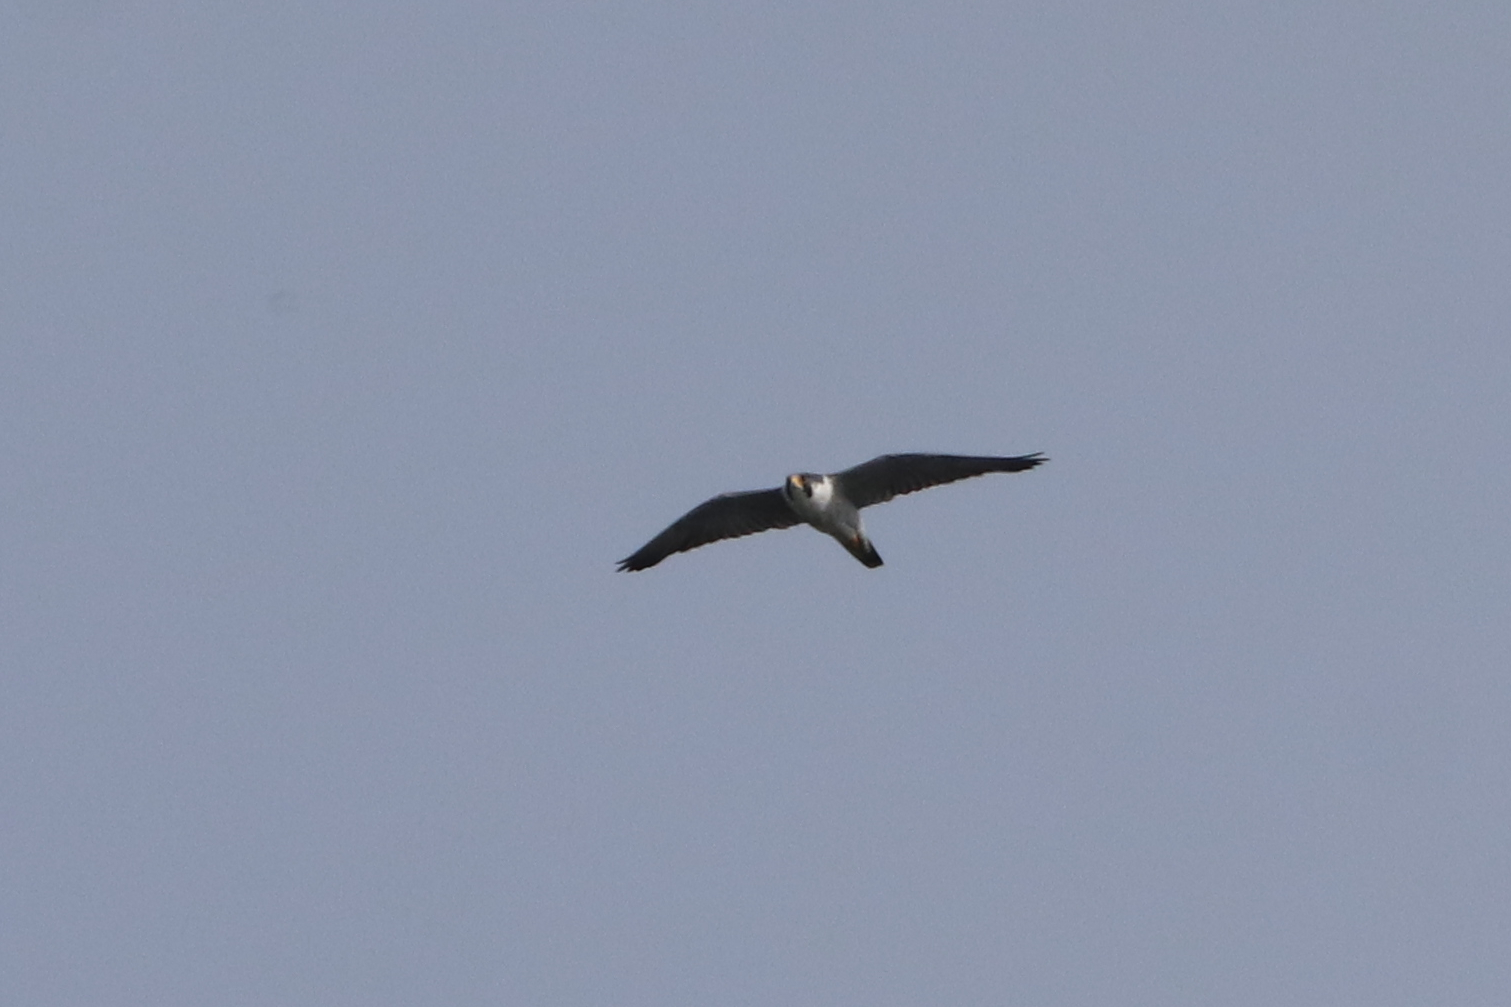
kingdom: Animalia
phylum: Chordata
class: Aves
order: Falconiformes
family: Falconidae
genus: Falco
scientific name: Falco peregrinus
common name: Peregrine falcon
